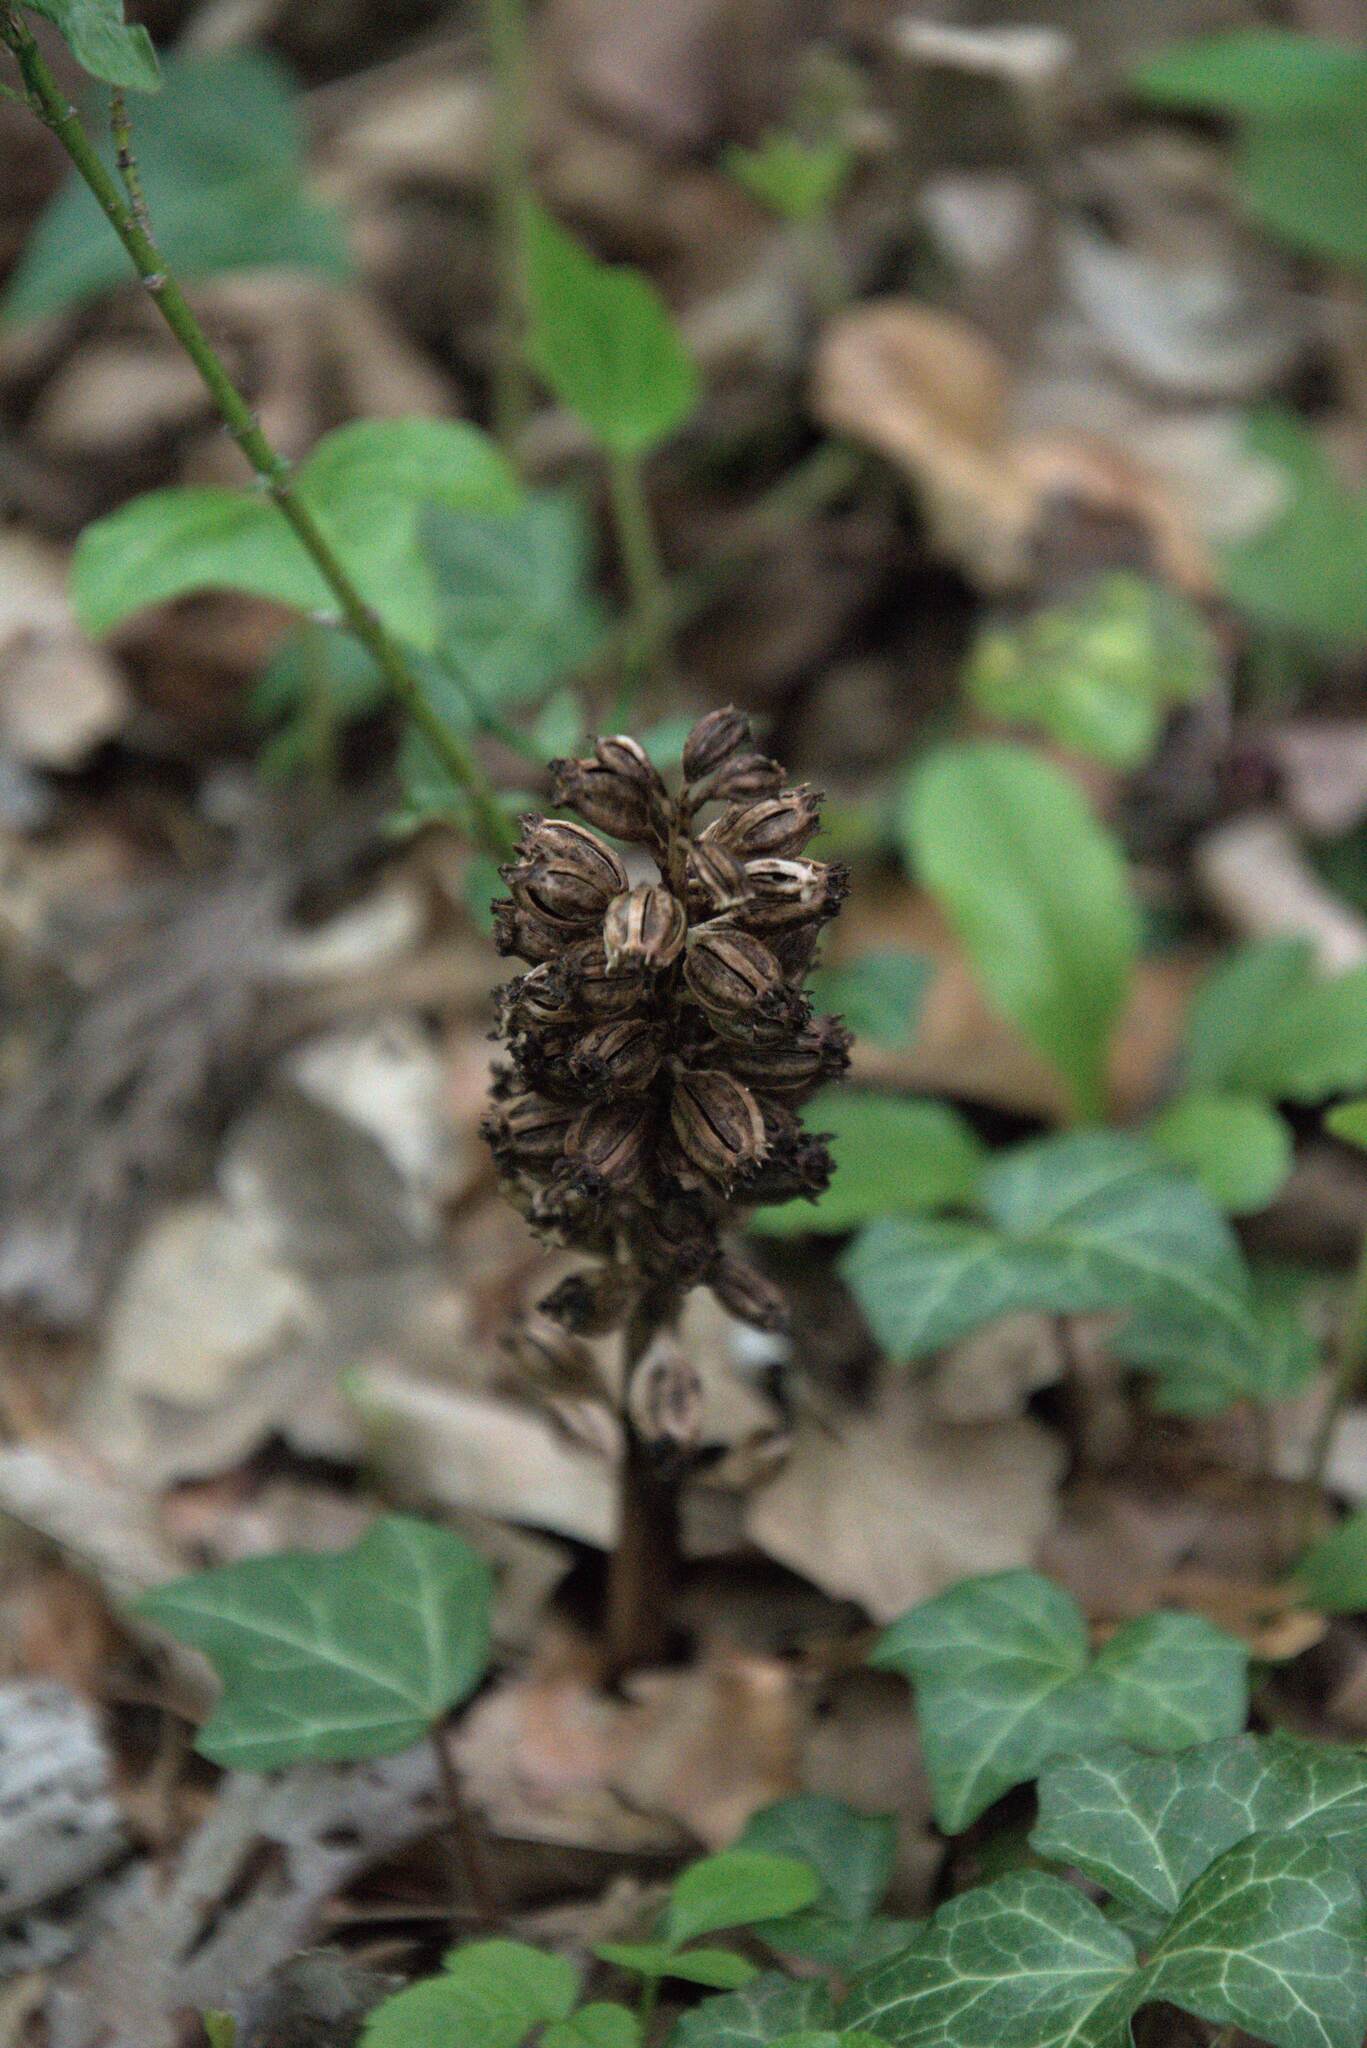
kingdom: Plantae
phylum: Tracheophyta
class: Liliopsida
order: Asparagales
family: Orchidaceae
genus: Neottia
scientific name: Neottia nidus-avis
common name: Bird's-nest orchid
